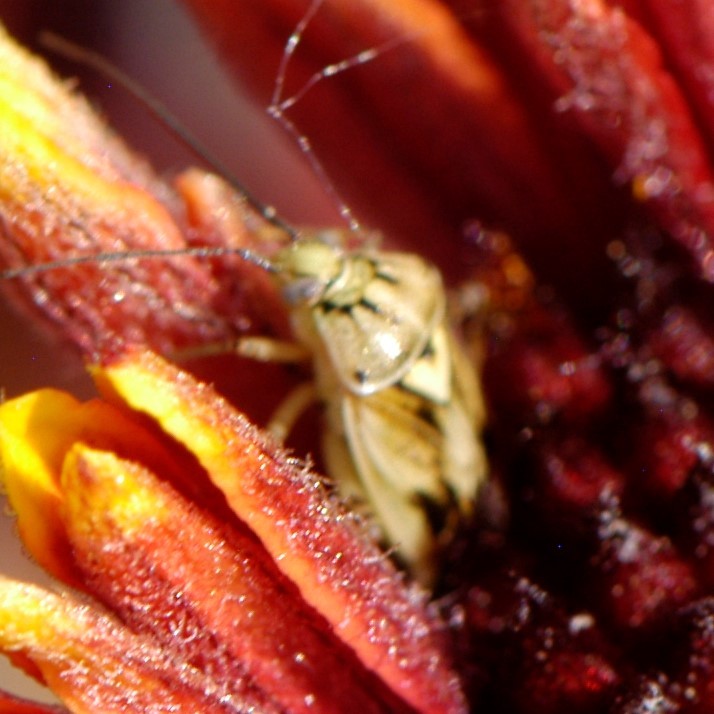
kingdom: Animalia
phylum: Arthropoda
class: Insecta
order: Hemiptera
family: Miridae
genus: Lygus
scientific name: Lygus atriflavus
